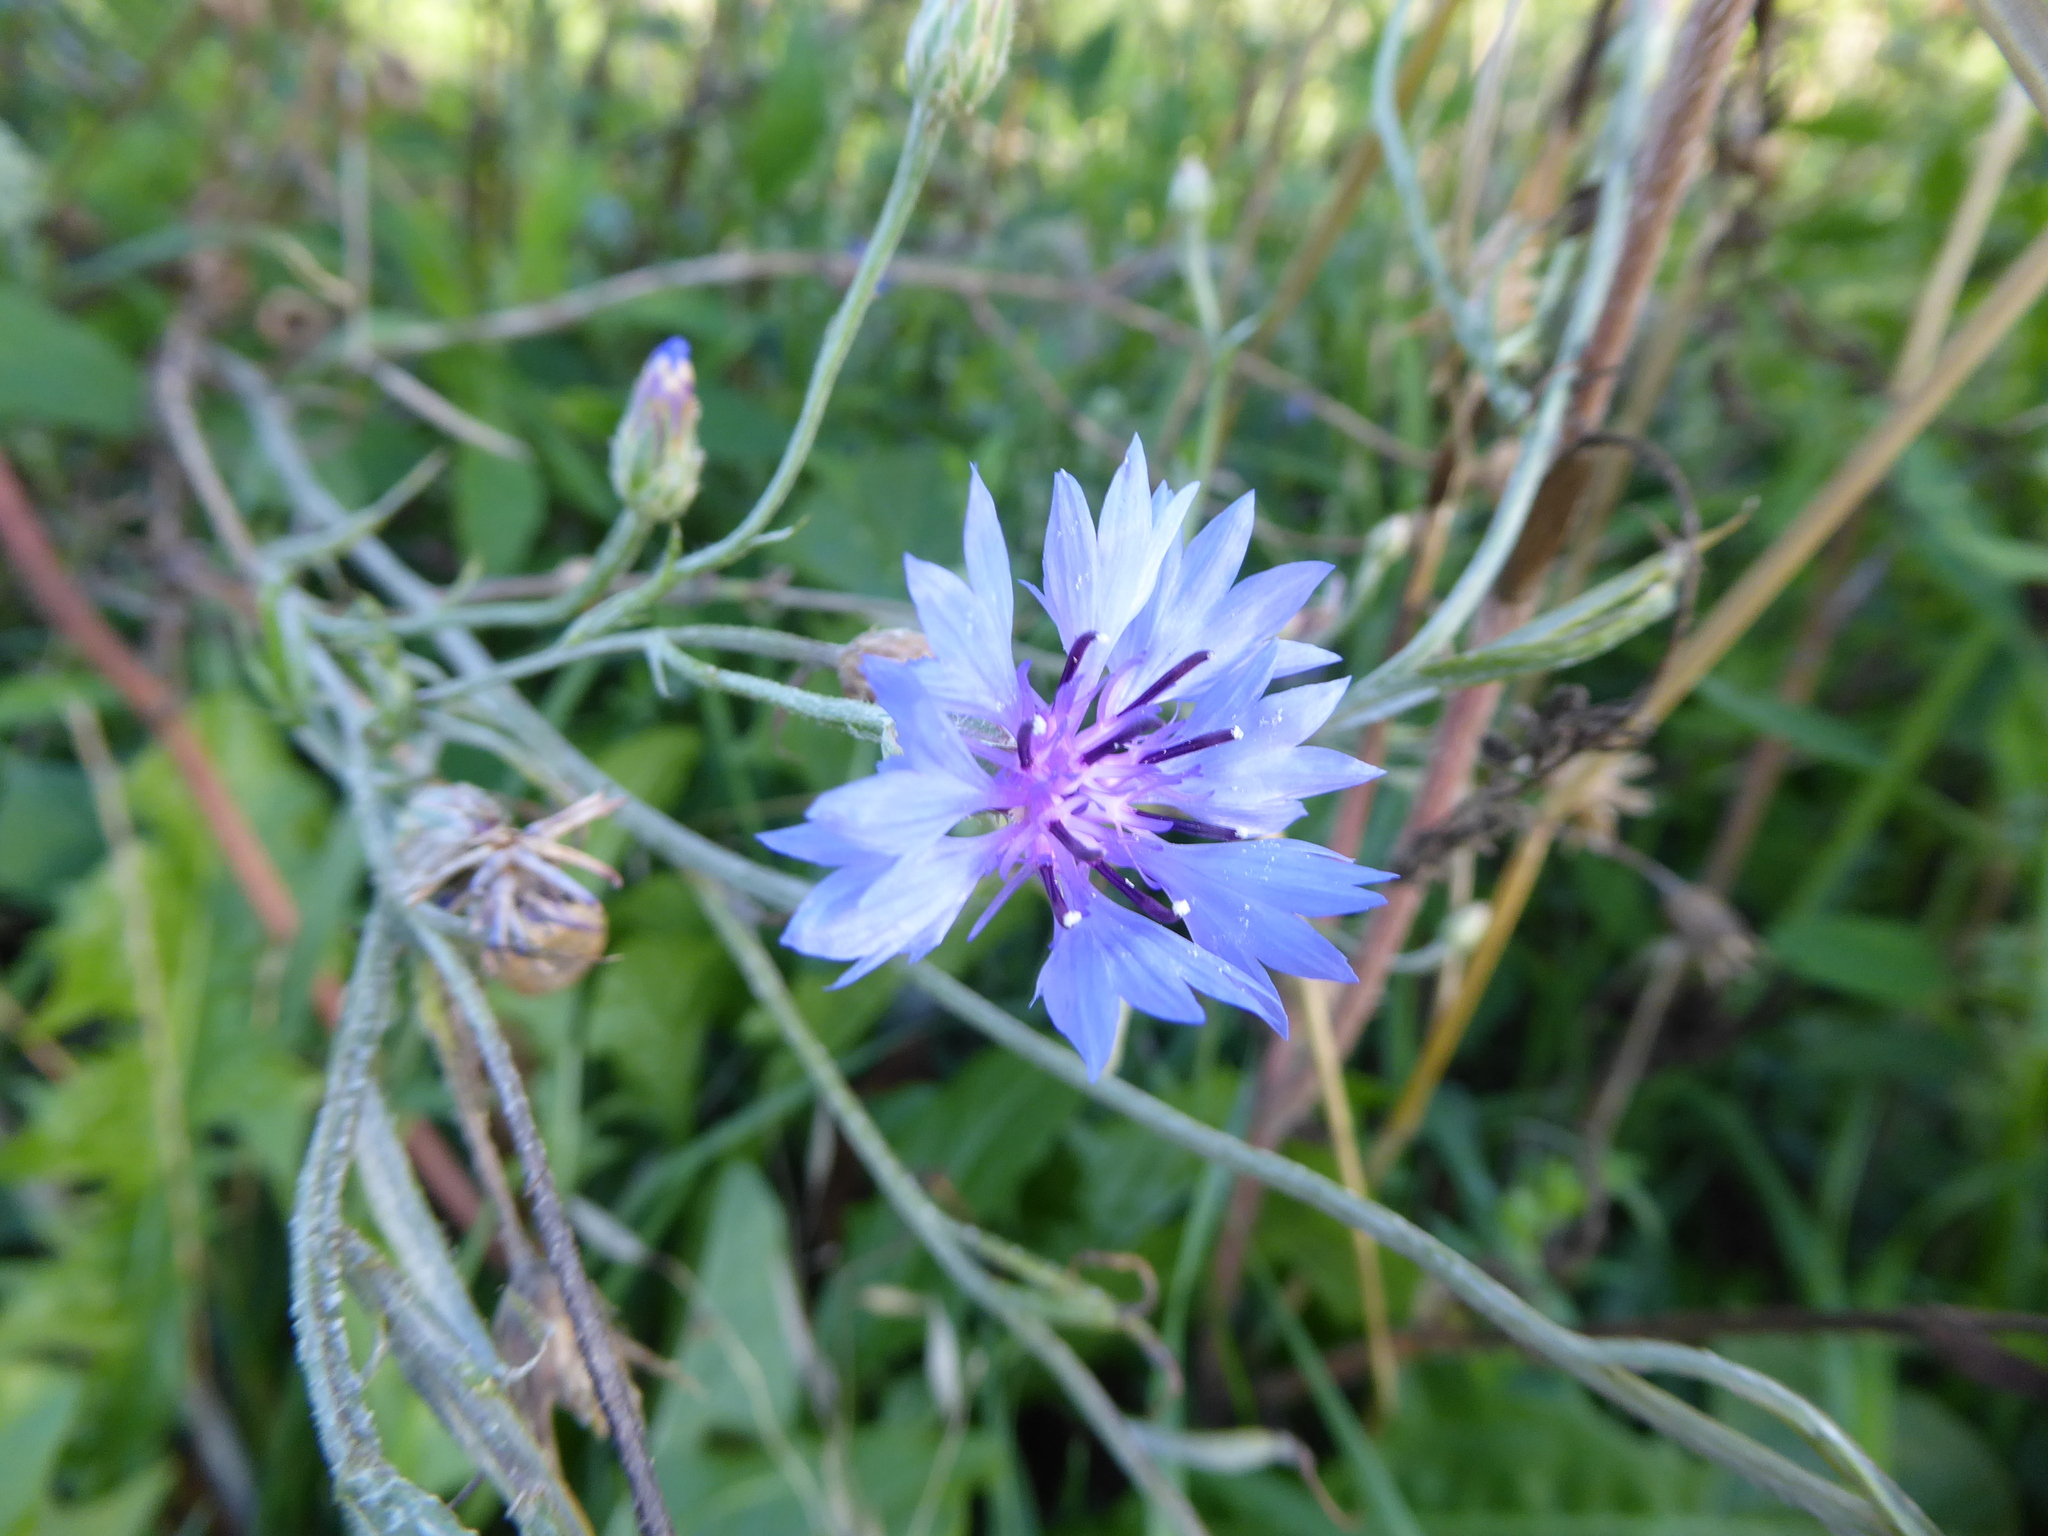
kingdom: Plantae
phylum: Tracheophyta
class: Magnoliopsida
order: Asterales
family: Asteraceae
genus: Centaurea
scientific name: Centaurea cyanus
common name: Cornflower
